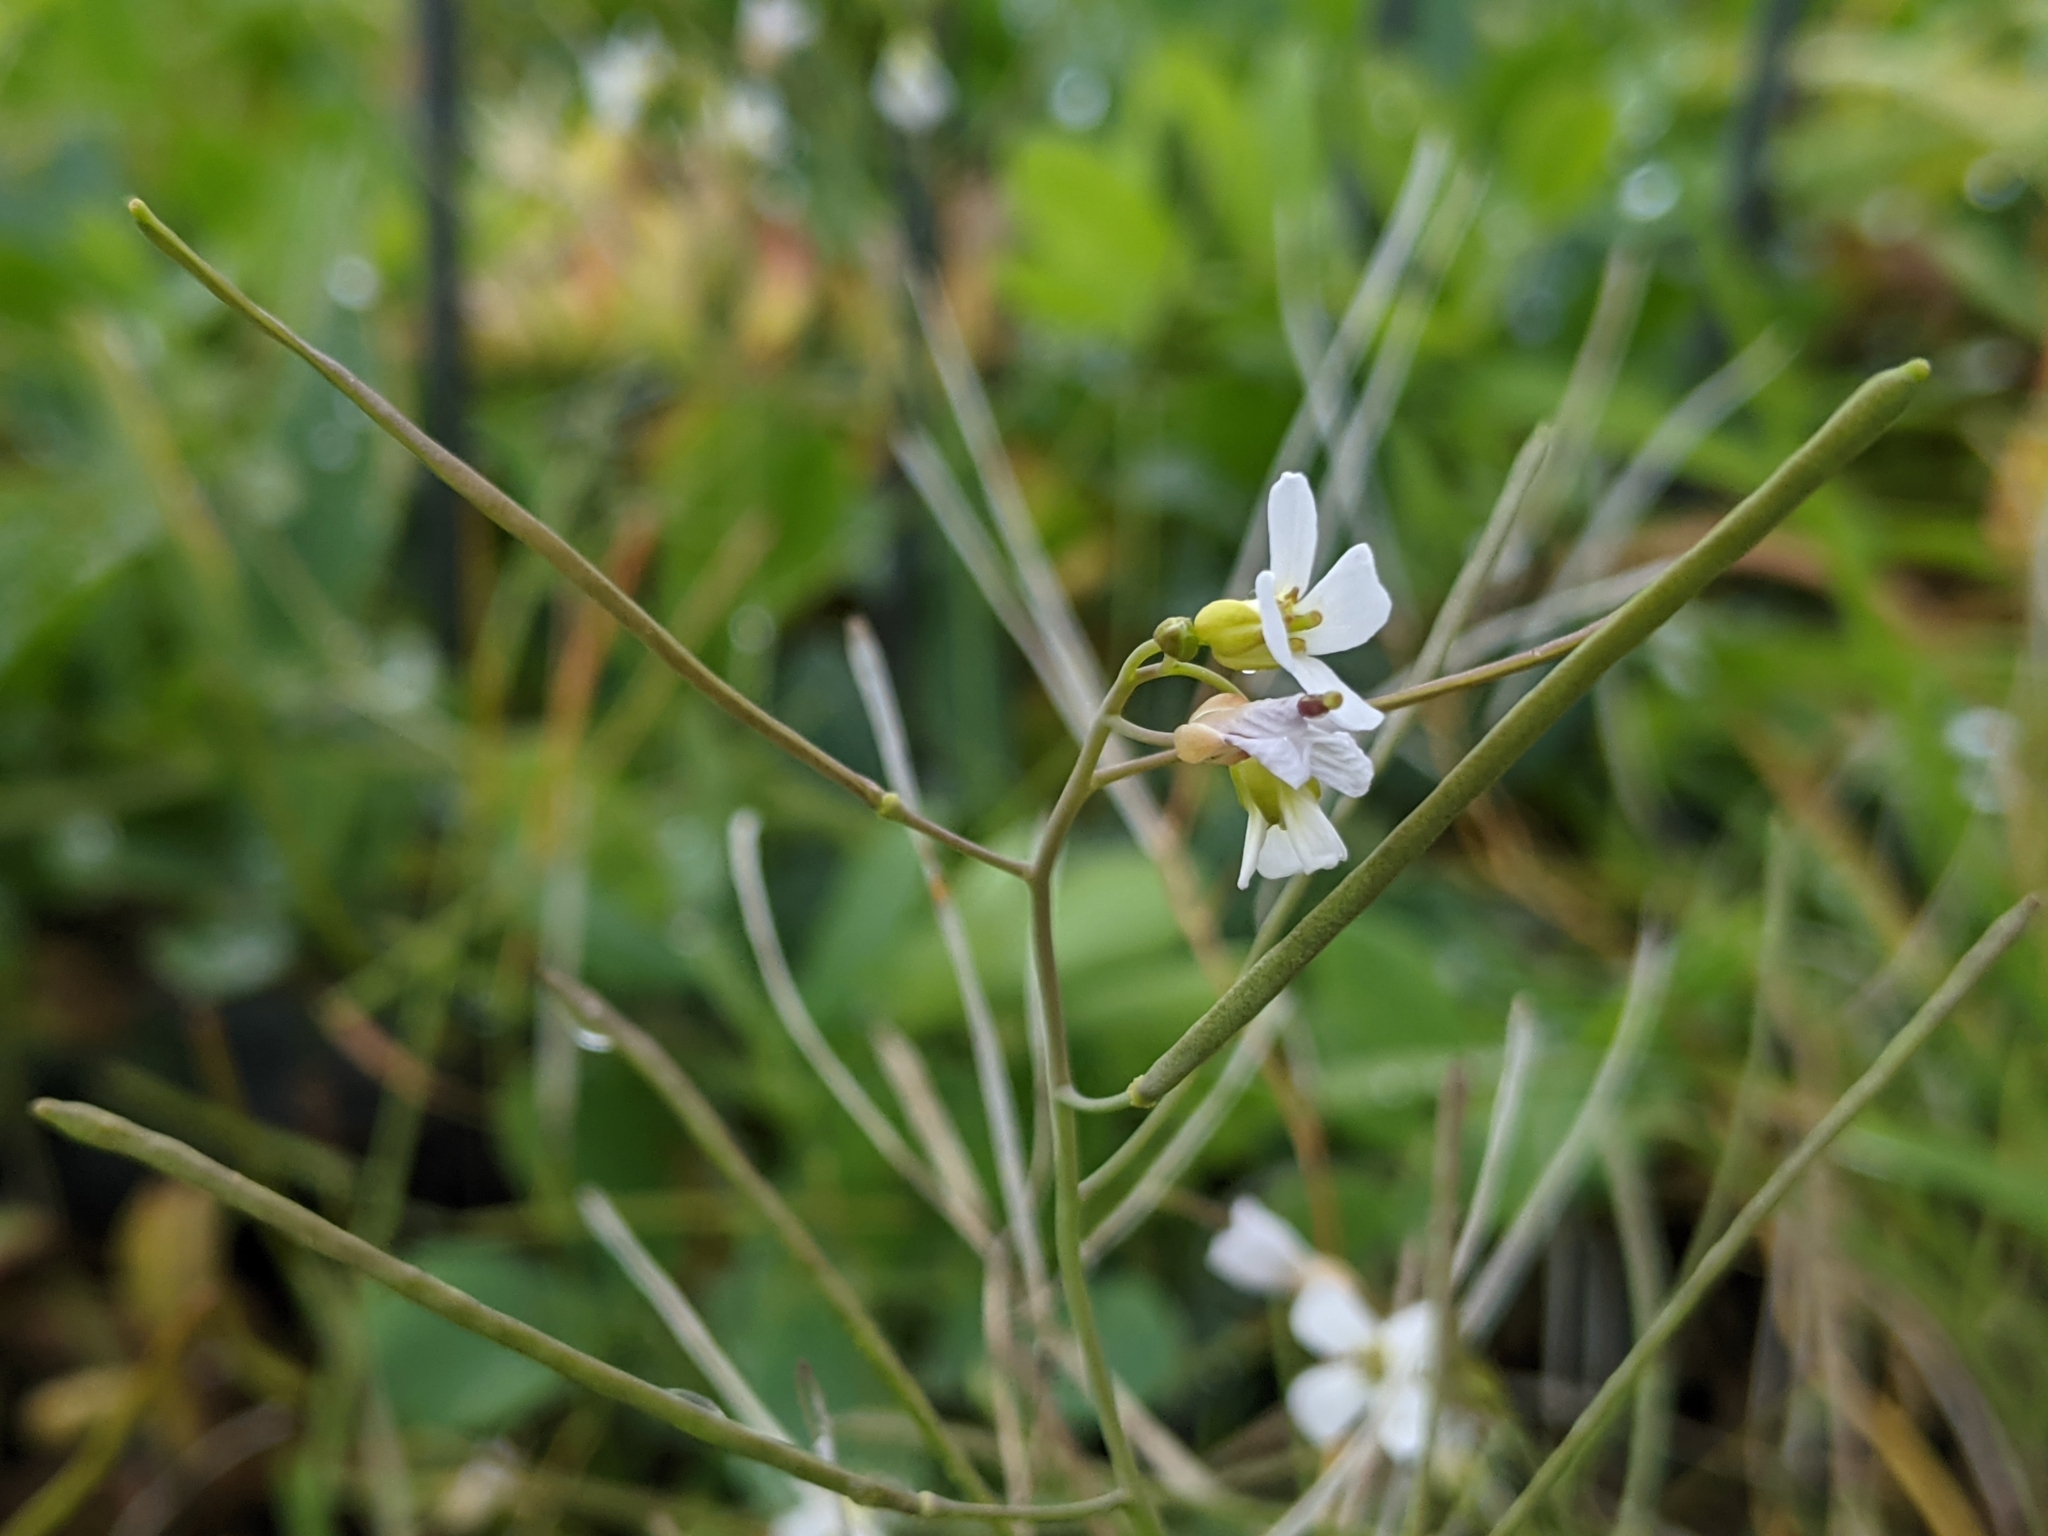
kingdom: Plantae
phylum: Tracheophyta
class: Magnoliopsida
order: Brassicales
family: Brassicaceae
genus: Arabidopsis
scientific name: Arabidopsis lyrata
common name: Lyrate rockcress
